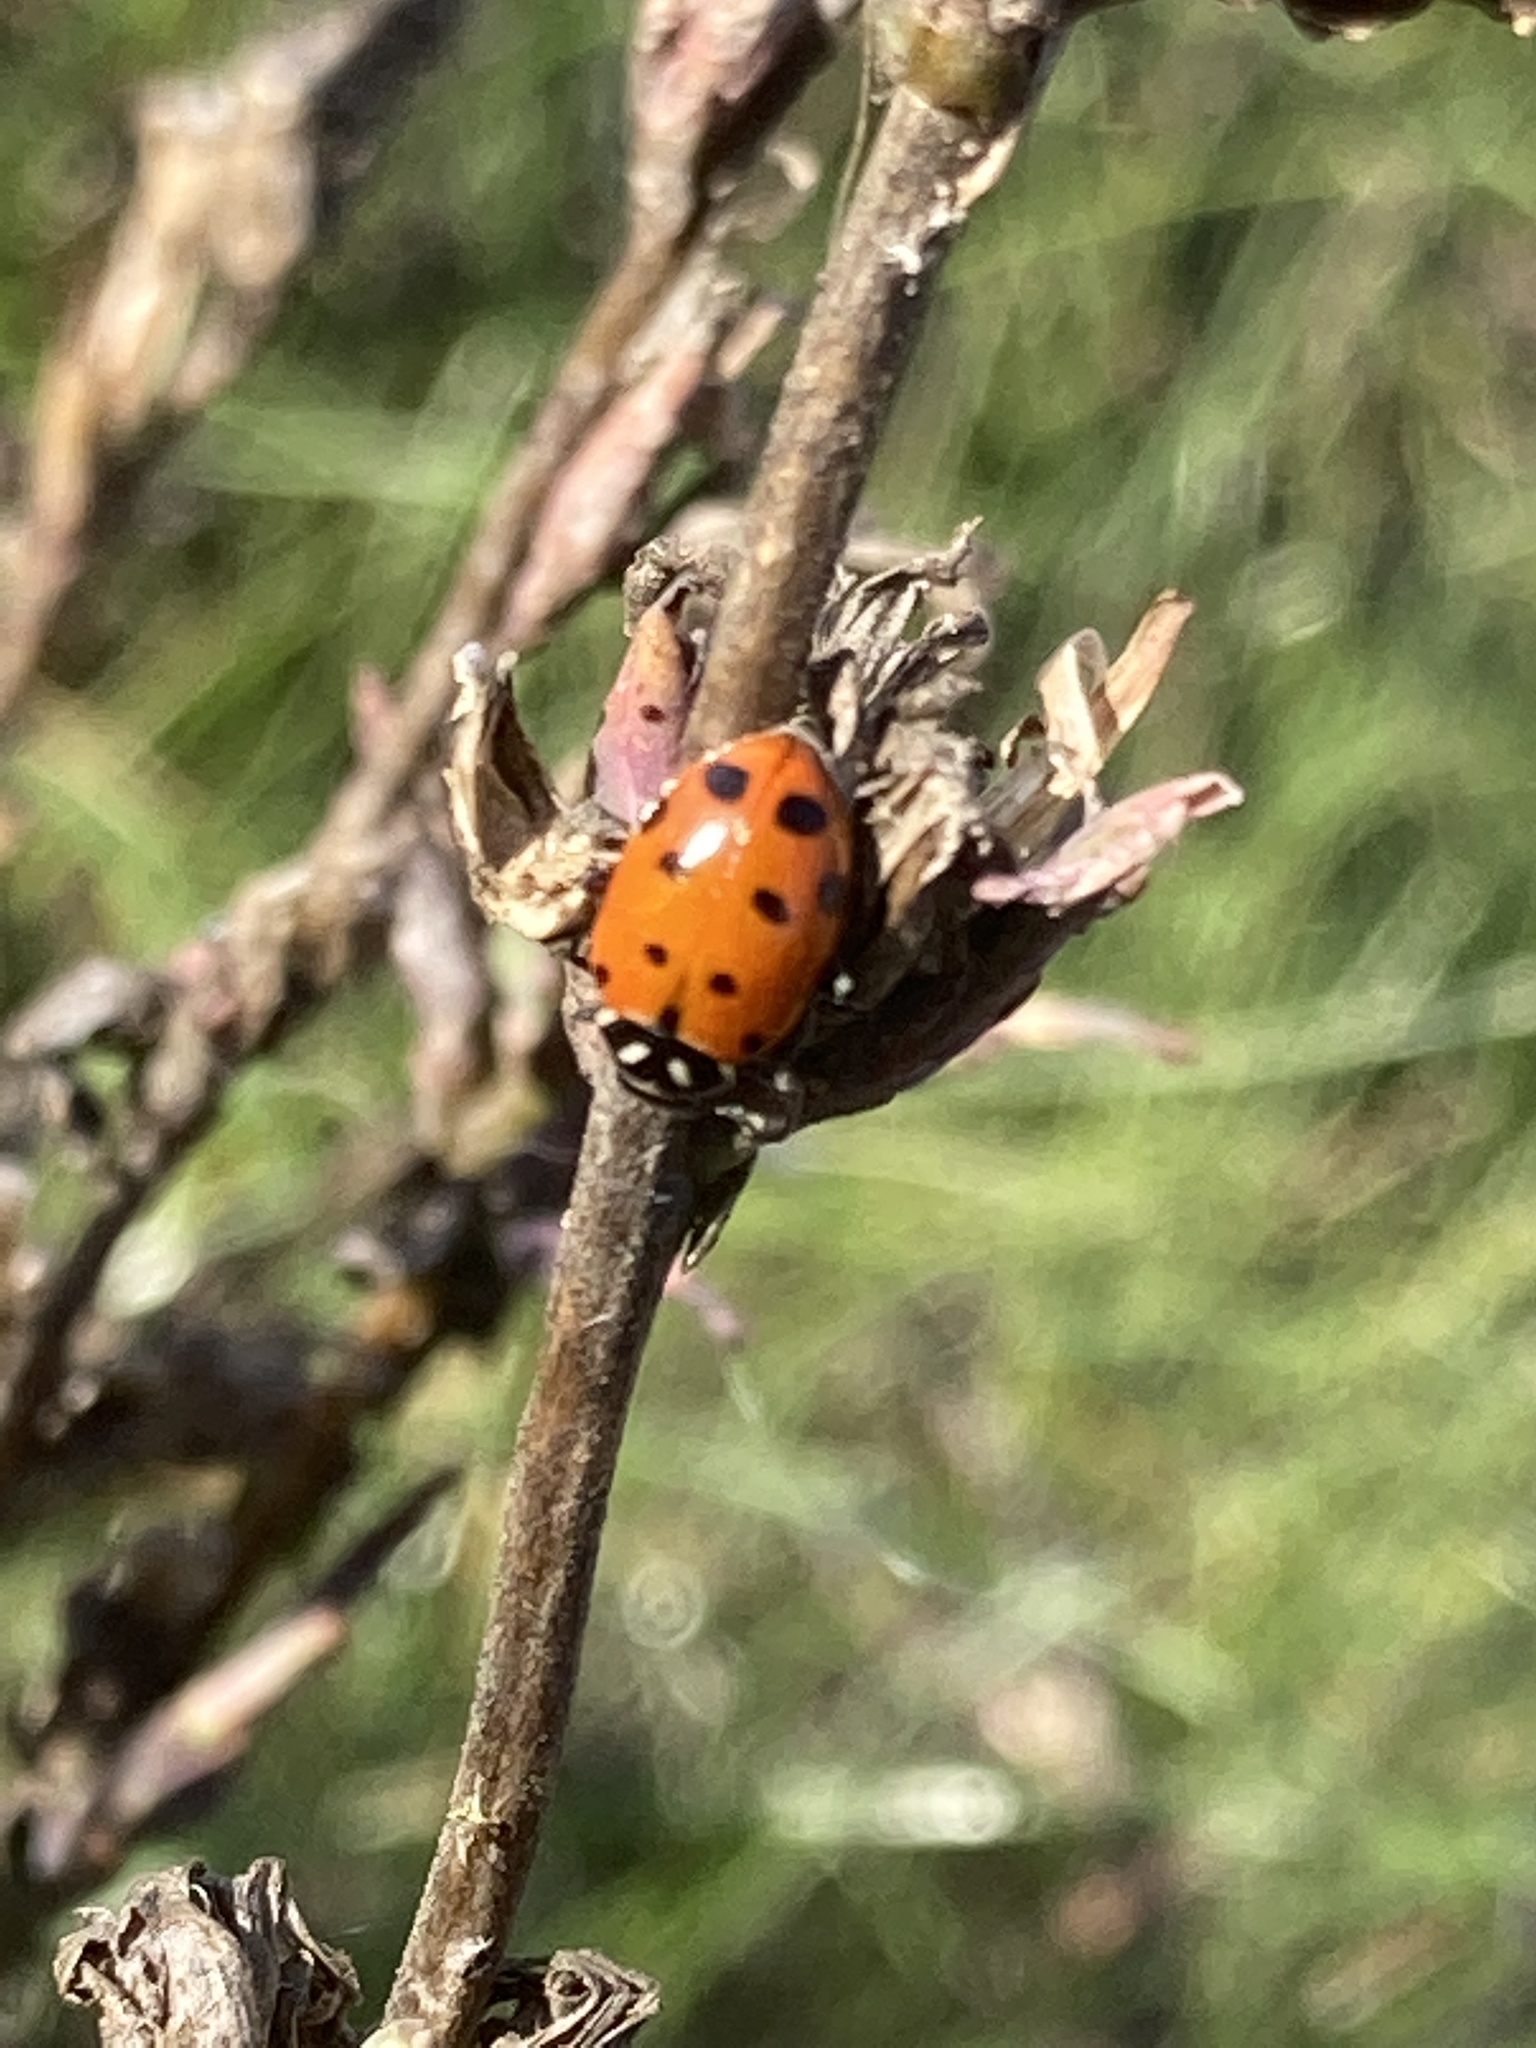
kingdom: Animalia
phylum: Arthropoda
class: Insecta
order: Coleoptera
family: Coccinellidae
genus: Hippodamia
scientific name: Hippodamia convergens
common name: Convergent lady beetle
